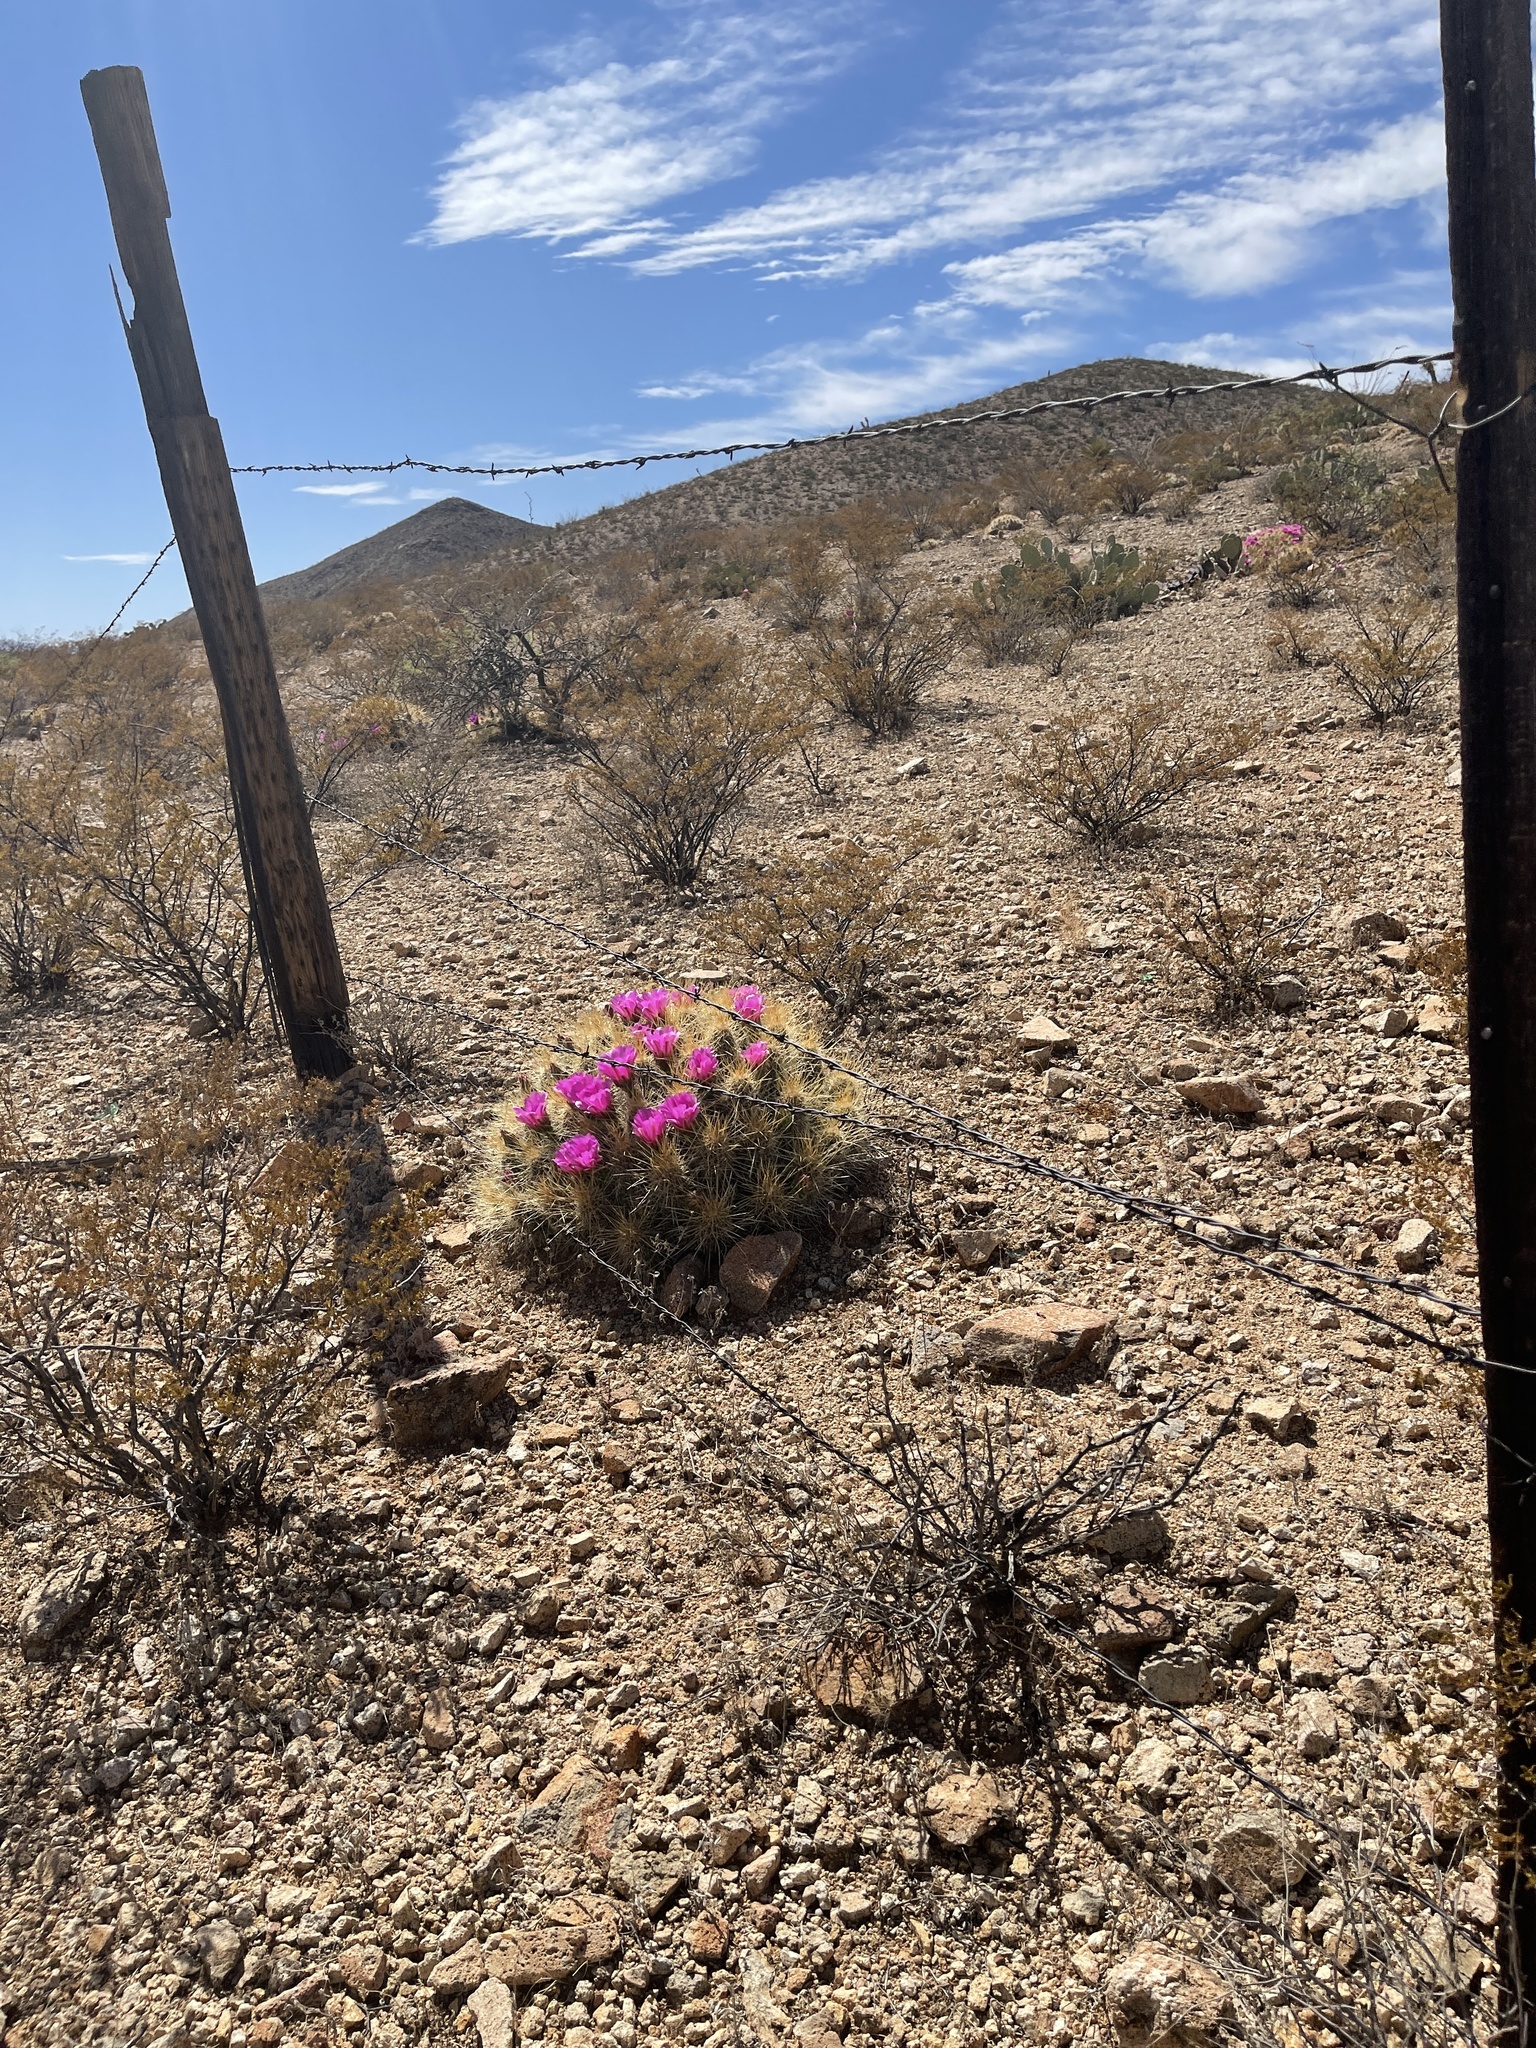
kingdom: Plantae
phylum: Tracheophyta
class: Magnoliopsida
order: Caryophyllales
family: Cactaceae
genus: Echinocereus
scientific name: Echinocereus stramineus
